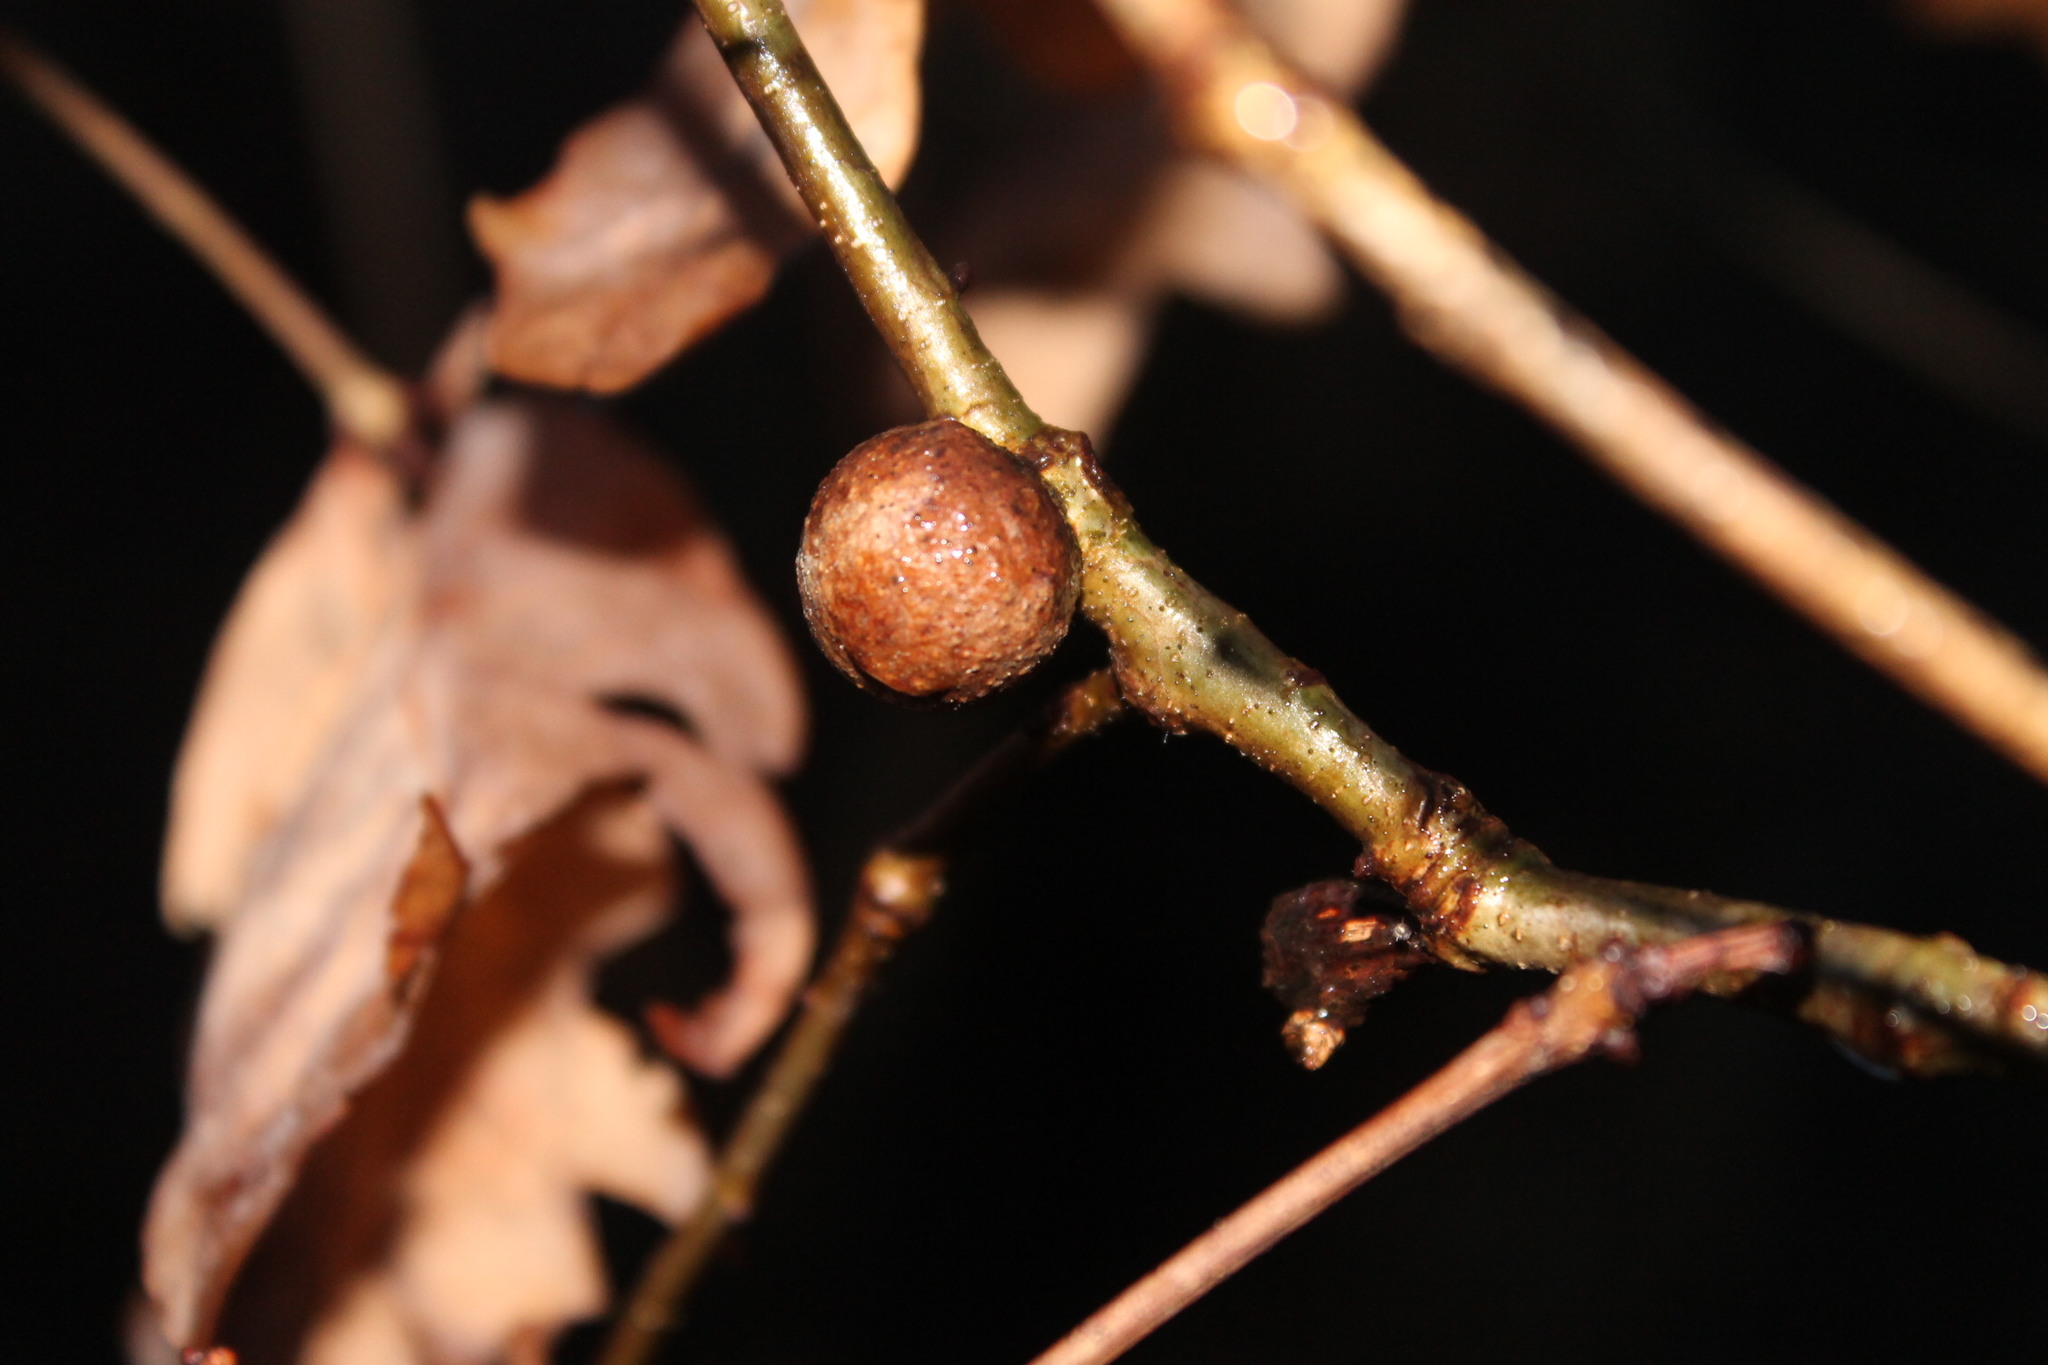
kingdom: Animalia
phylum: Arthropoda
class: Insecta
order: Hymenoptera
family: Cynipidae
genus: Disholcaspis
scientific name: Disholcaspis quercusglobulus
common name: Round bullet gall wasp
